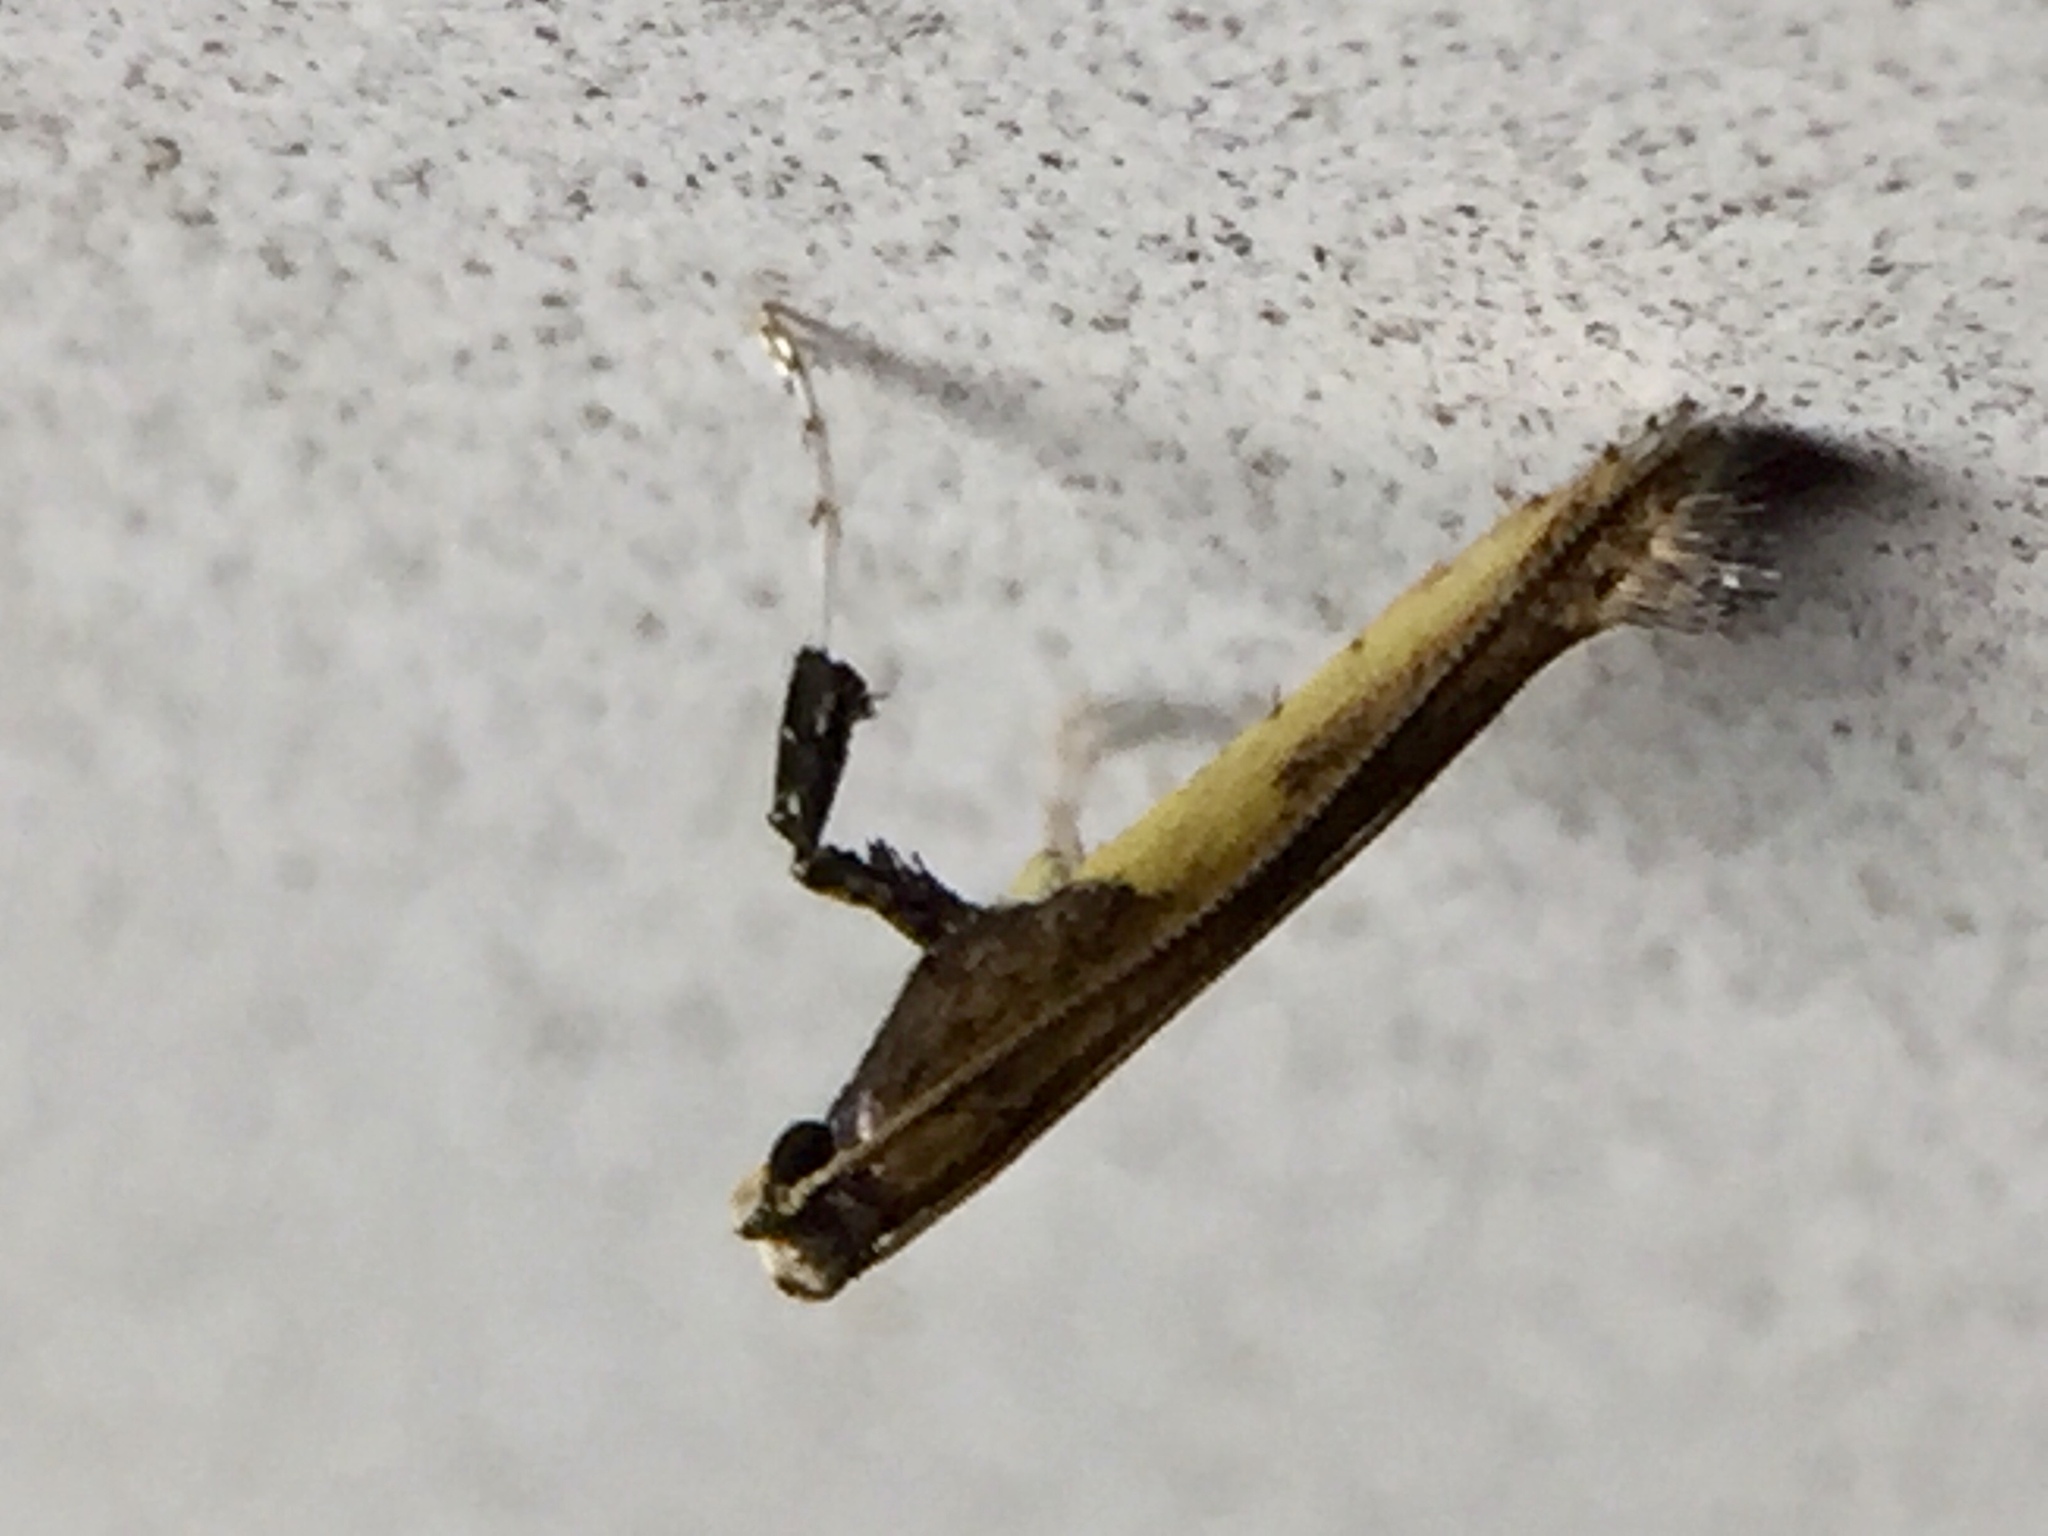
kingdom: Animalia
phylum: Arthropoda
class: Insecta
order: Lepidoptera
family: Gracillariidae
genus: Caloptilia
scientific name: Caloptilia azaleella
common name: Azalea leafminer
